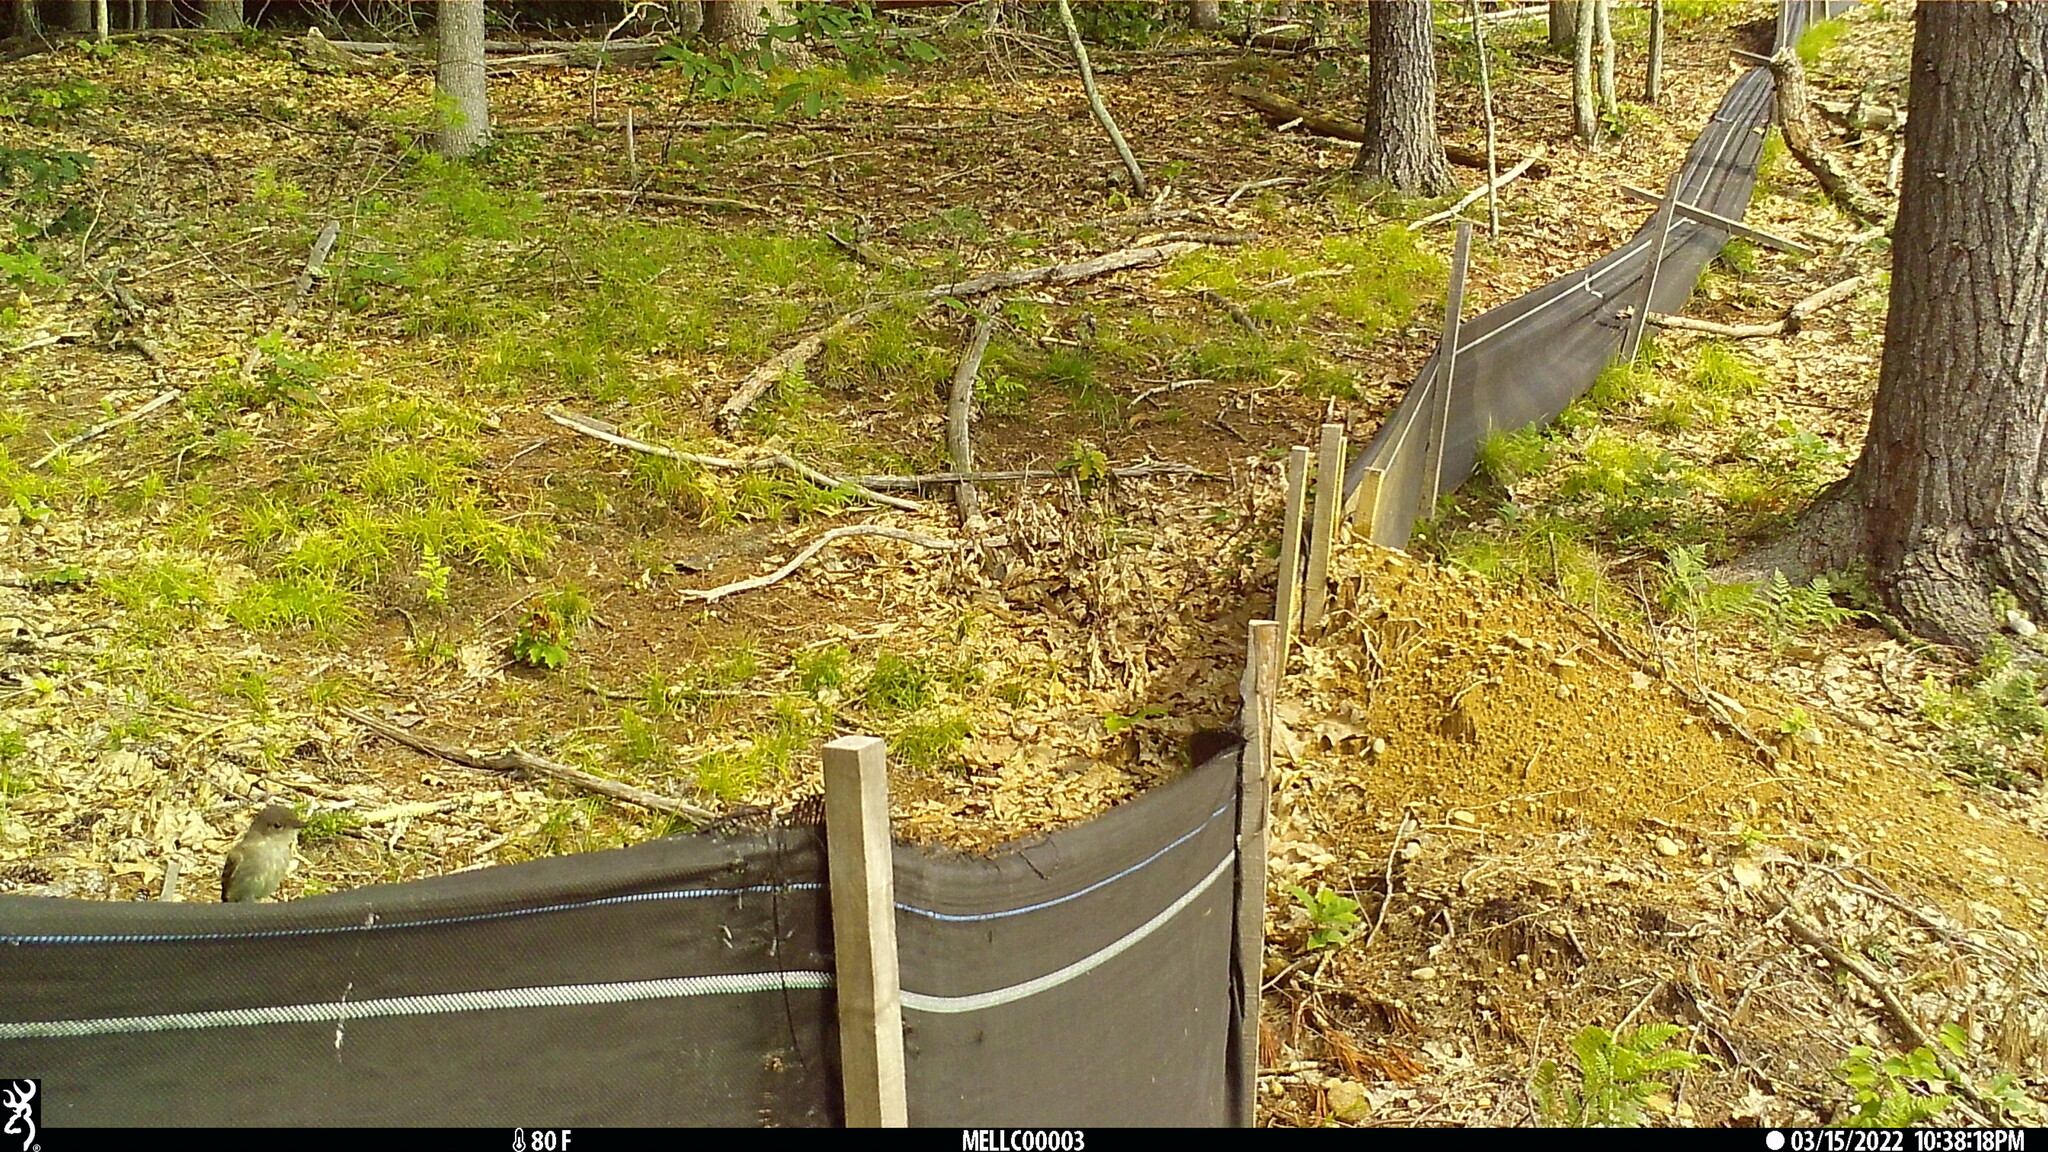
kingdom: Animalia
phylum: Chordata
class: Aves
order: Passeriformes
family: Tyrannidae
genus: Sayornis
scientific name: Sayornis phoebe
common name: Eastern phoebe
